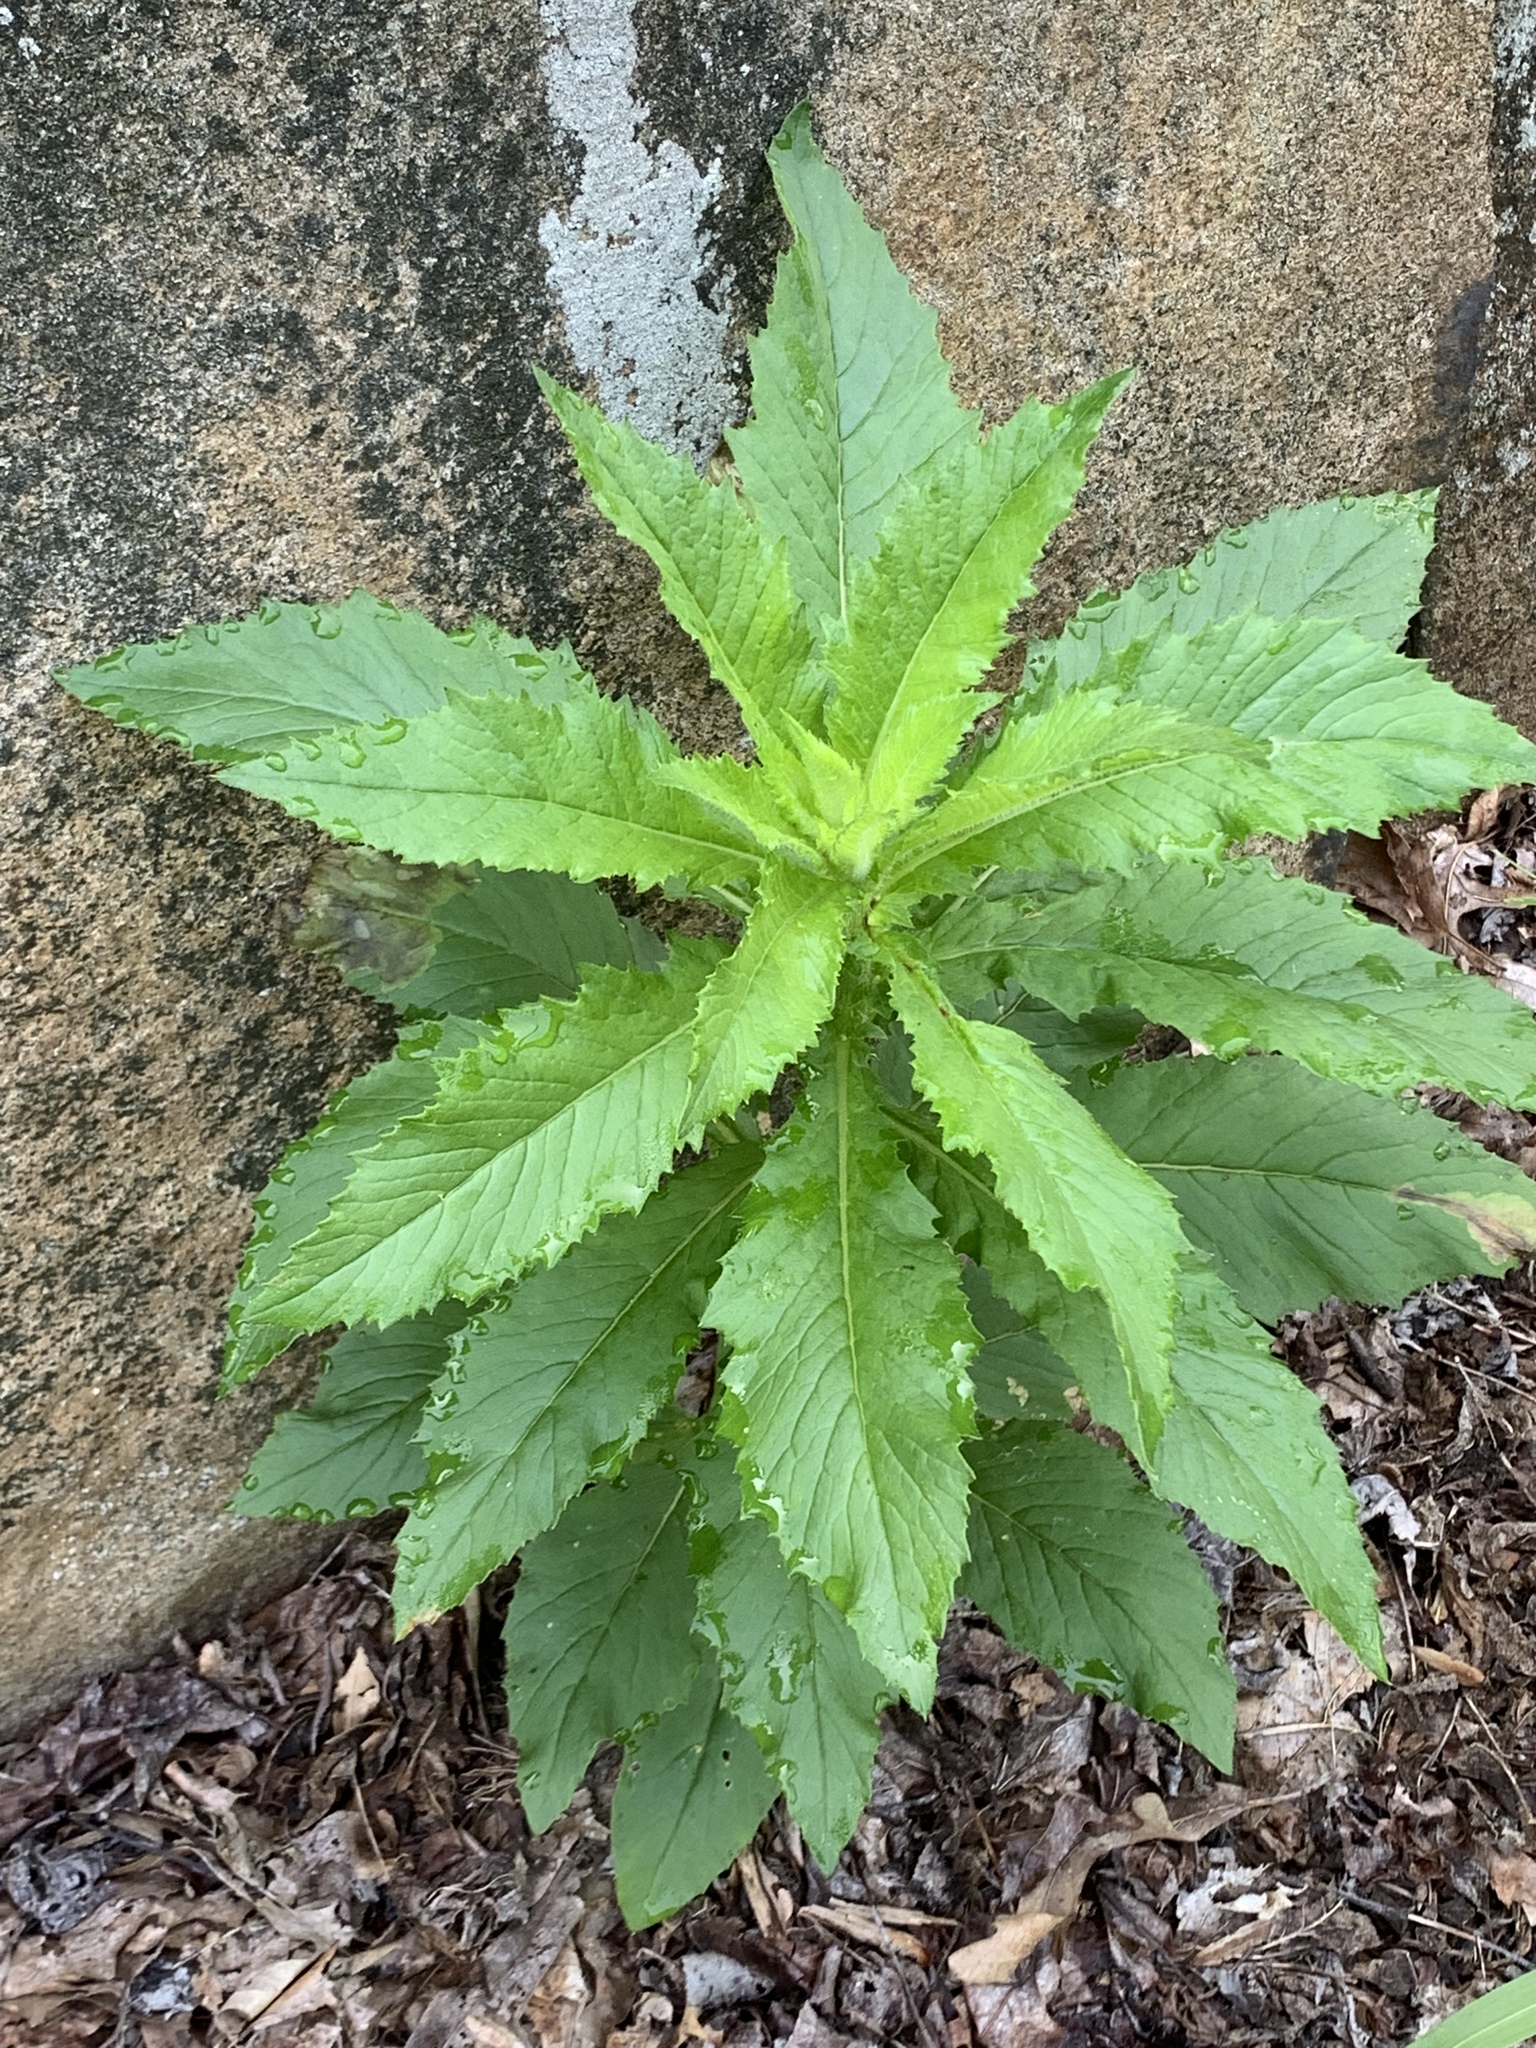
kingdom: Plantae
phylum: Tracheophyta
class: Magnoliopsida
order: Asterales
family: Asteraceae
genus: Erechtites
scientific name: Erechtites hieraciifolius
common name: American burnweed
